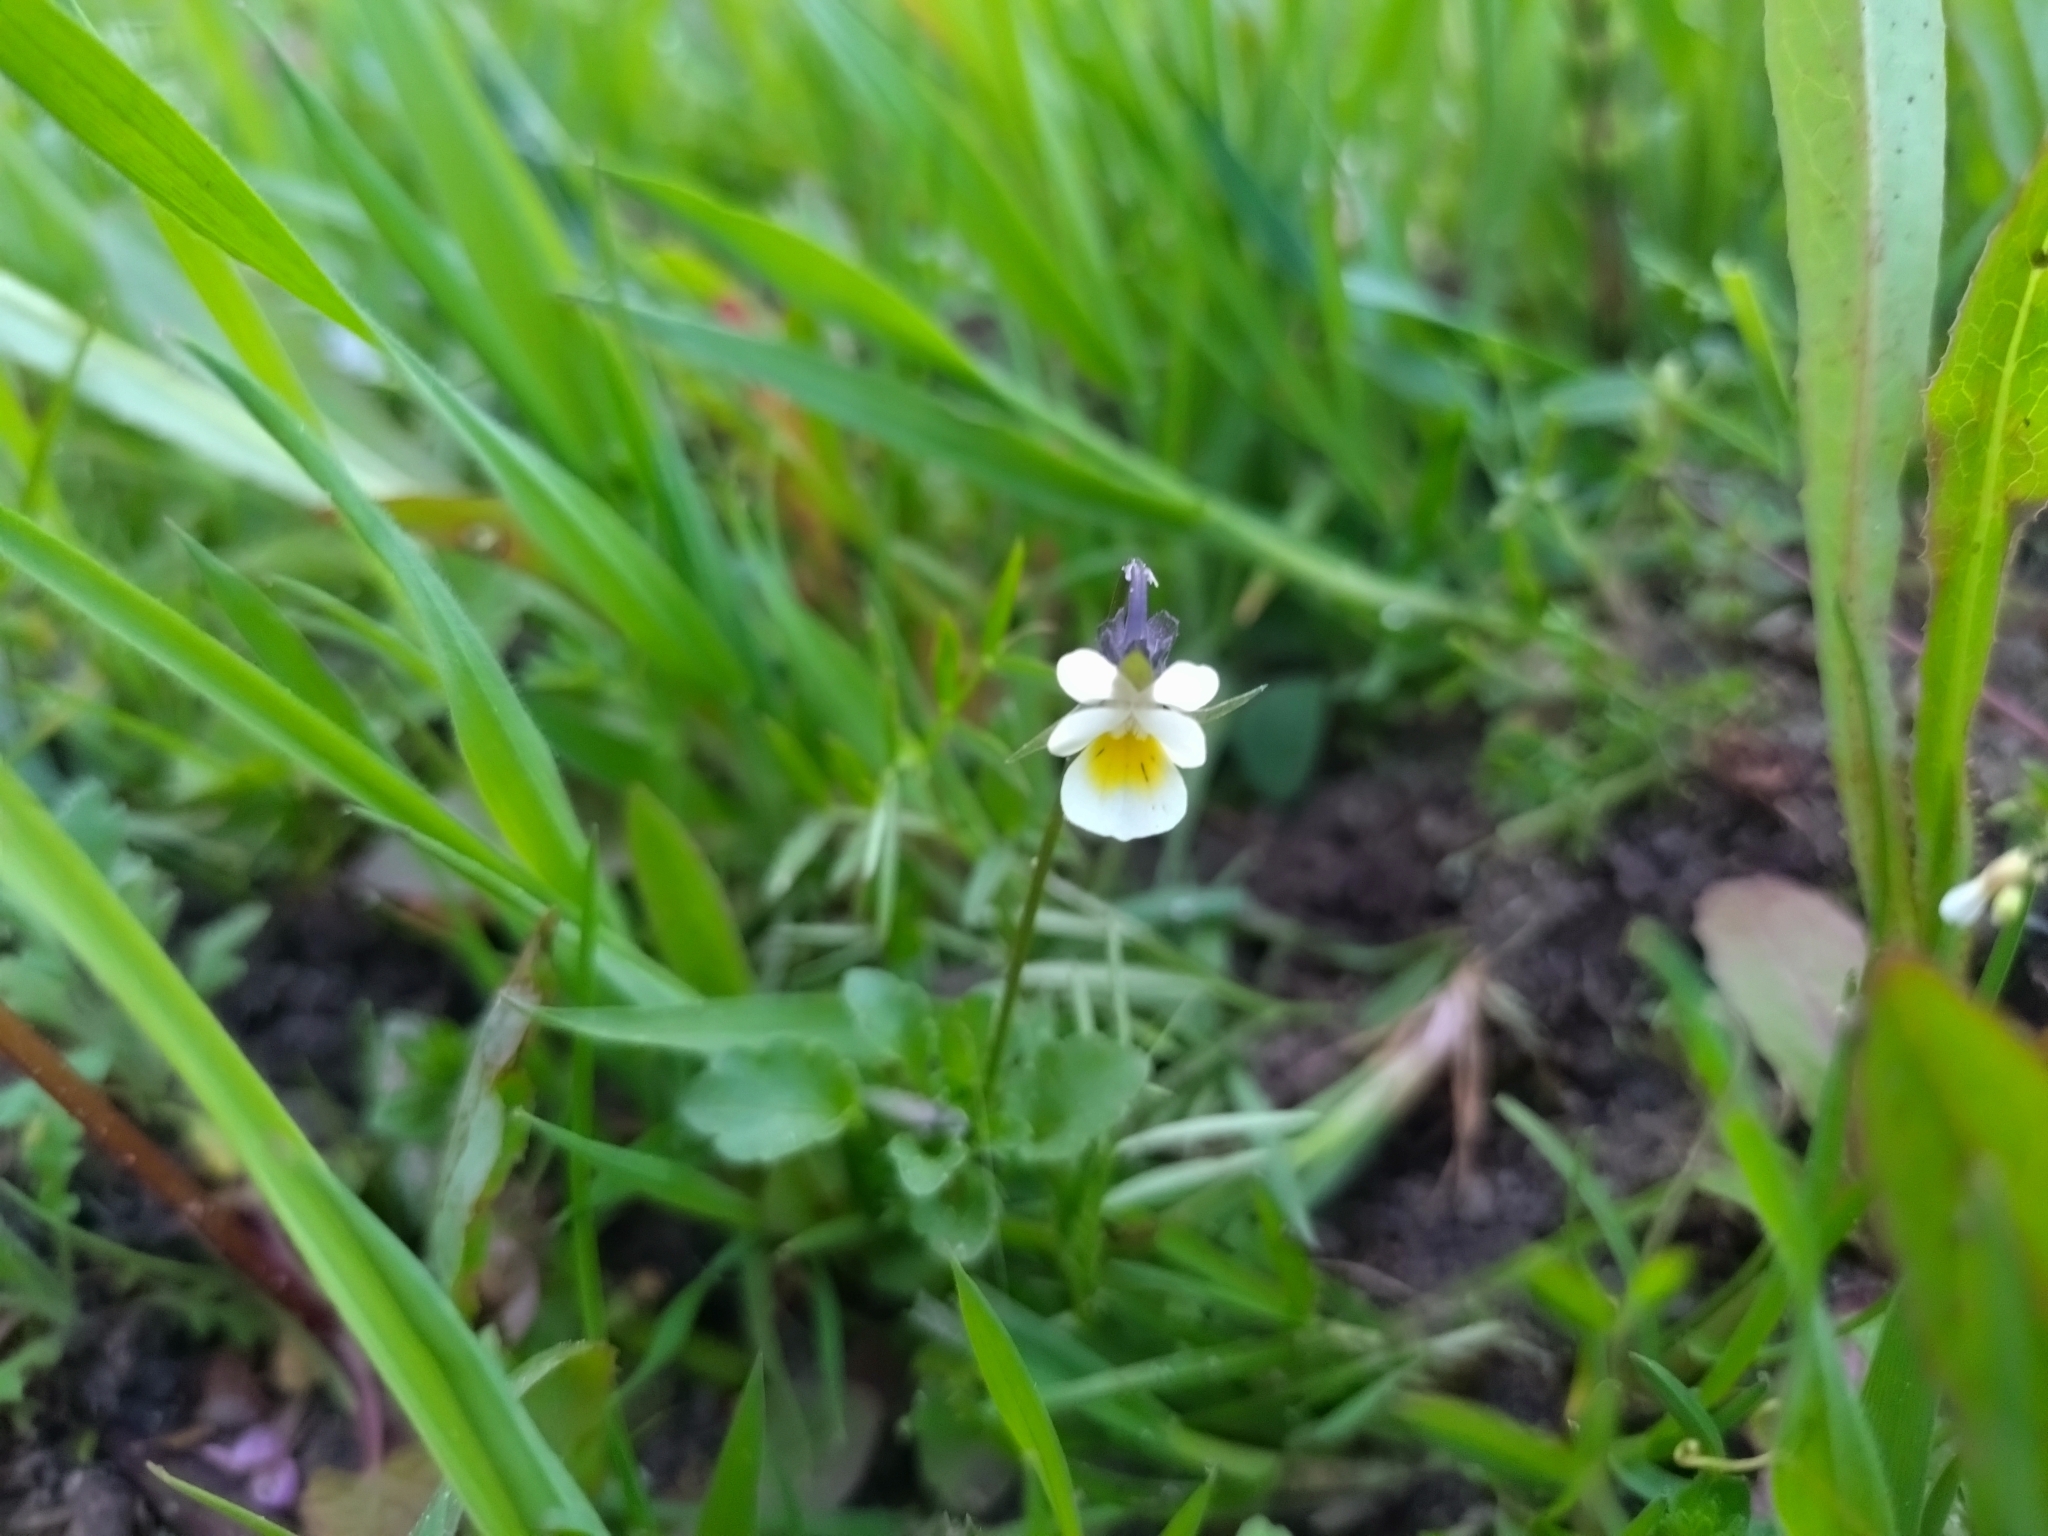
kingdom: Plantae
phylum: Tracheophyta
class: Magnoliopsida
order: Malpighiales
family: Violaceae
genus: Viola
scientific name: Viola arvensis
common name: Field pansy
